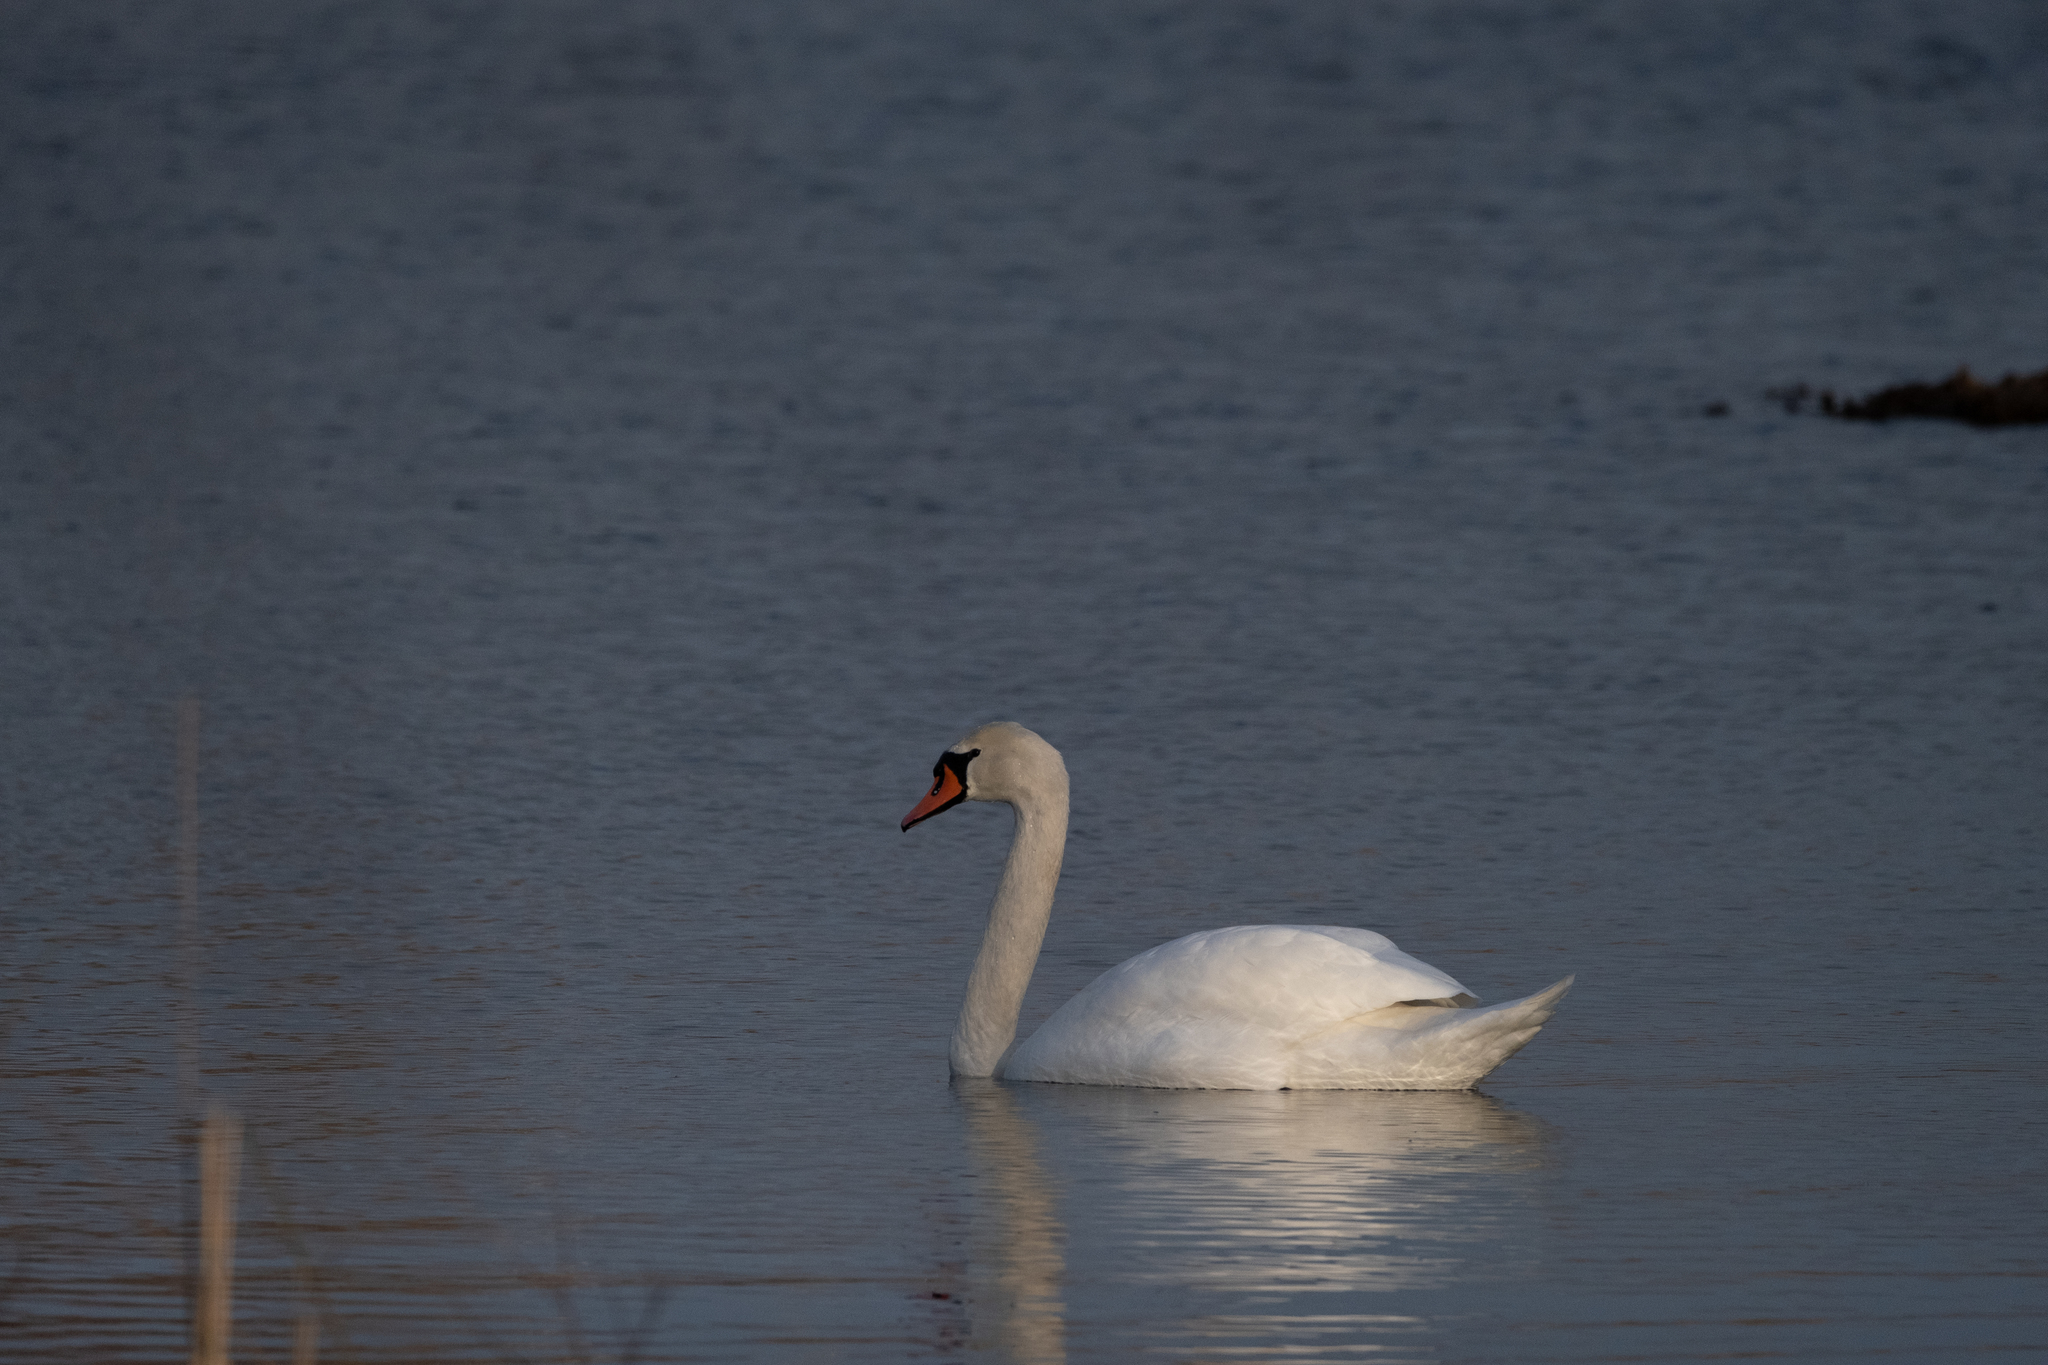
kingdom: Animalia
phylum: Chordata
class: Aves
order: Anseriformes
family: Anatidae
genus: Cygnus
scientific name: Cygnus olor
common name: Mute swan
